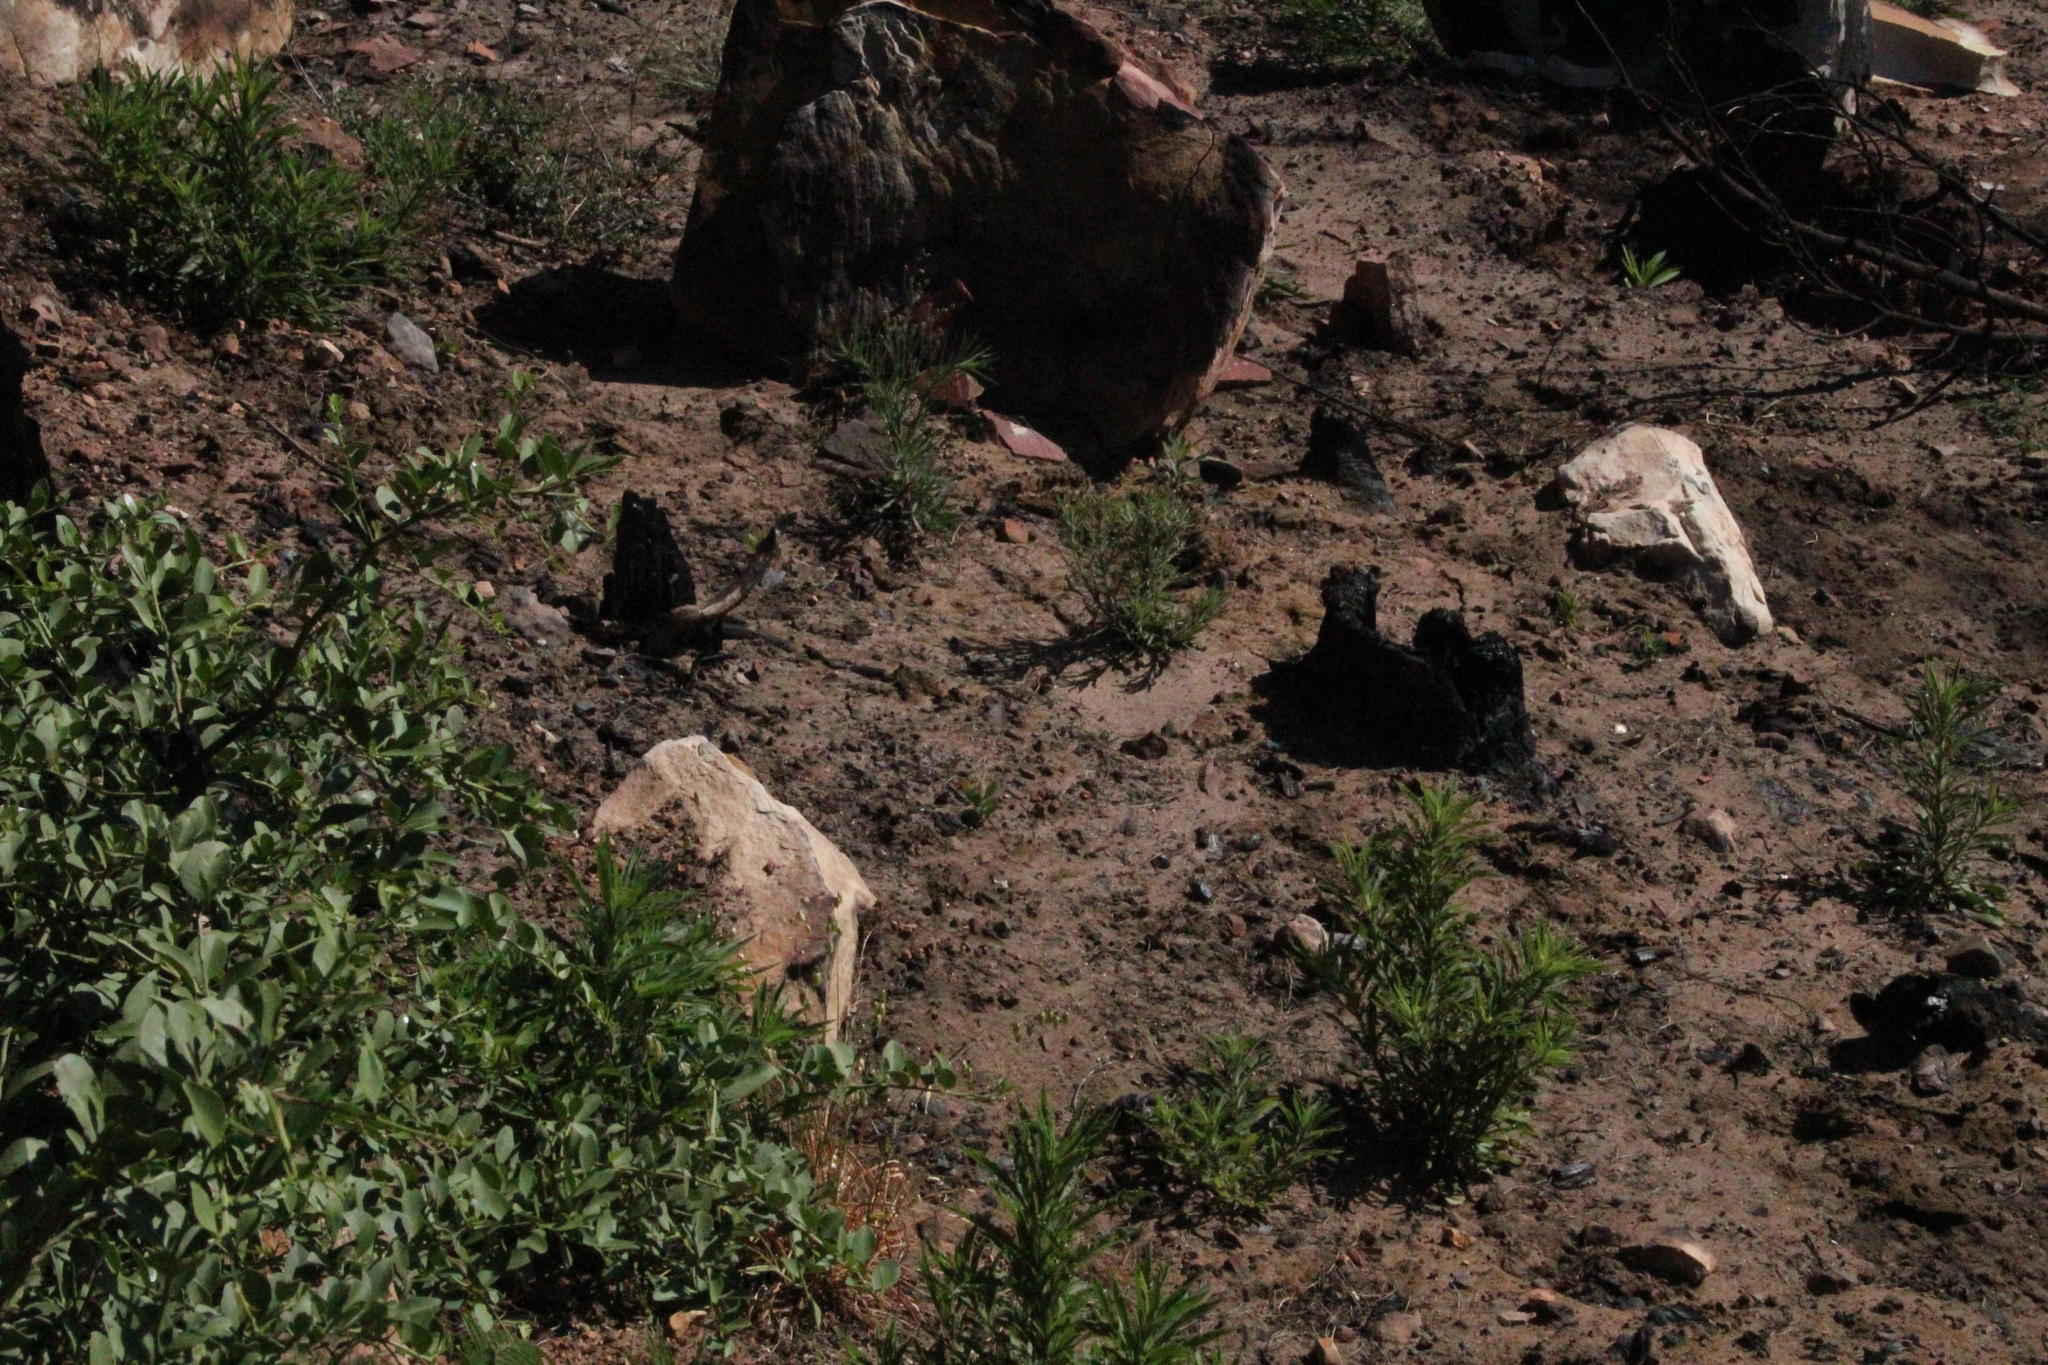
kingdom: Plantae
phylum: Tracheophyta
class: Magnoliopsida
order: Proteales
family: Proteaceae
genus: Protea
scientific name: Protea lepidocarpodendron
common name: Black-bearded protea
